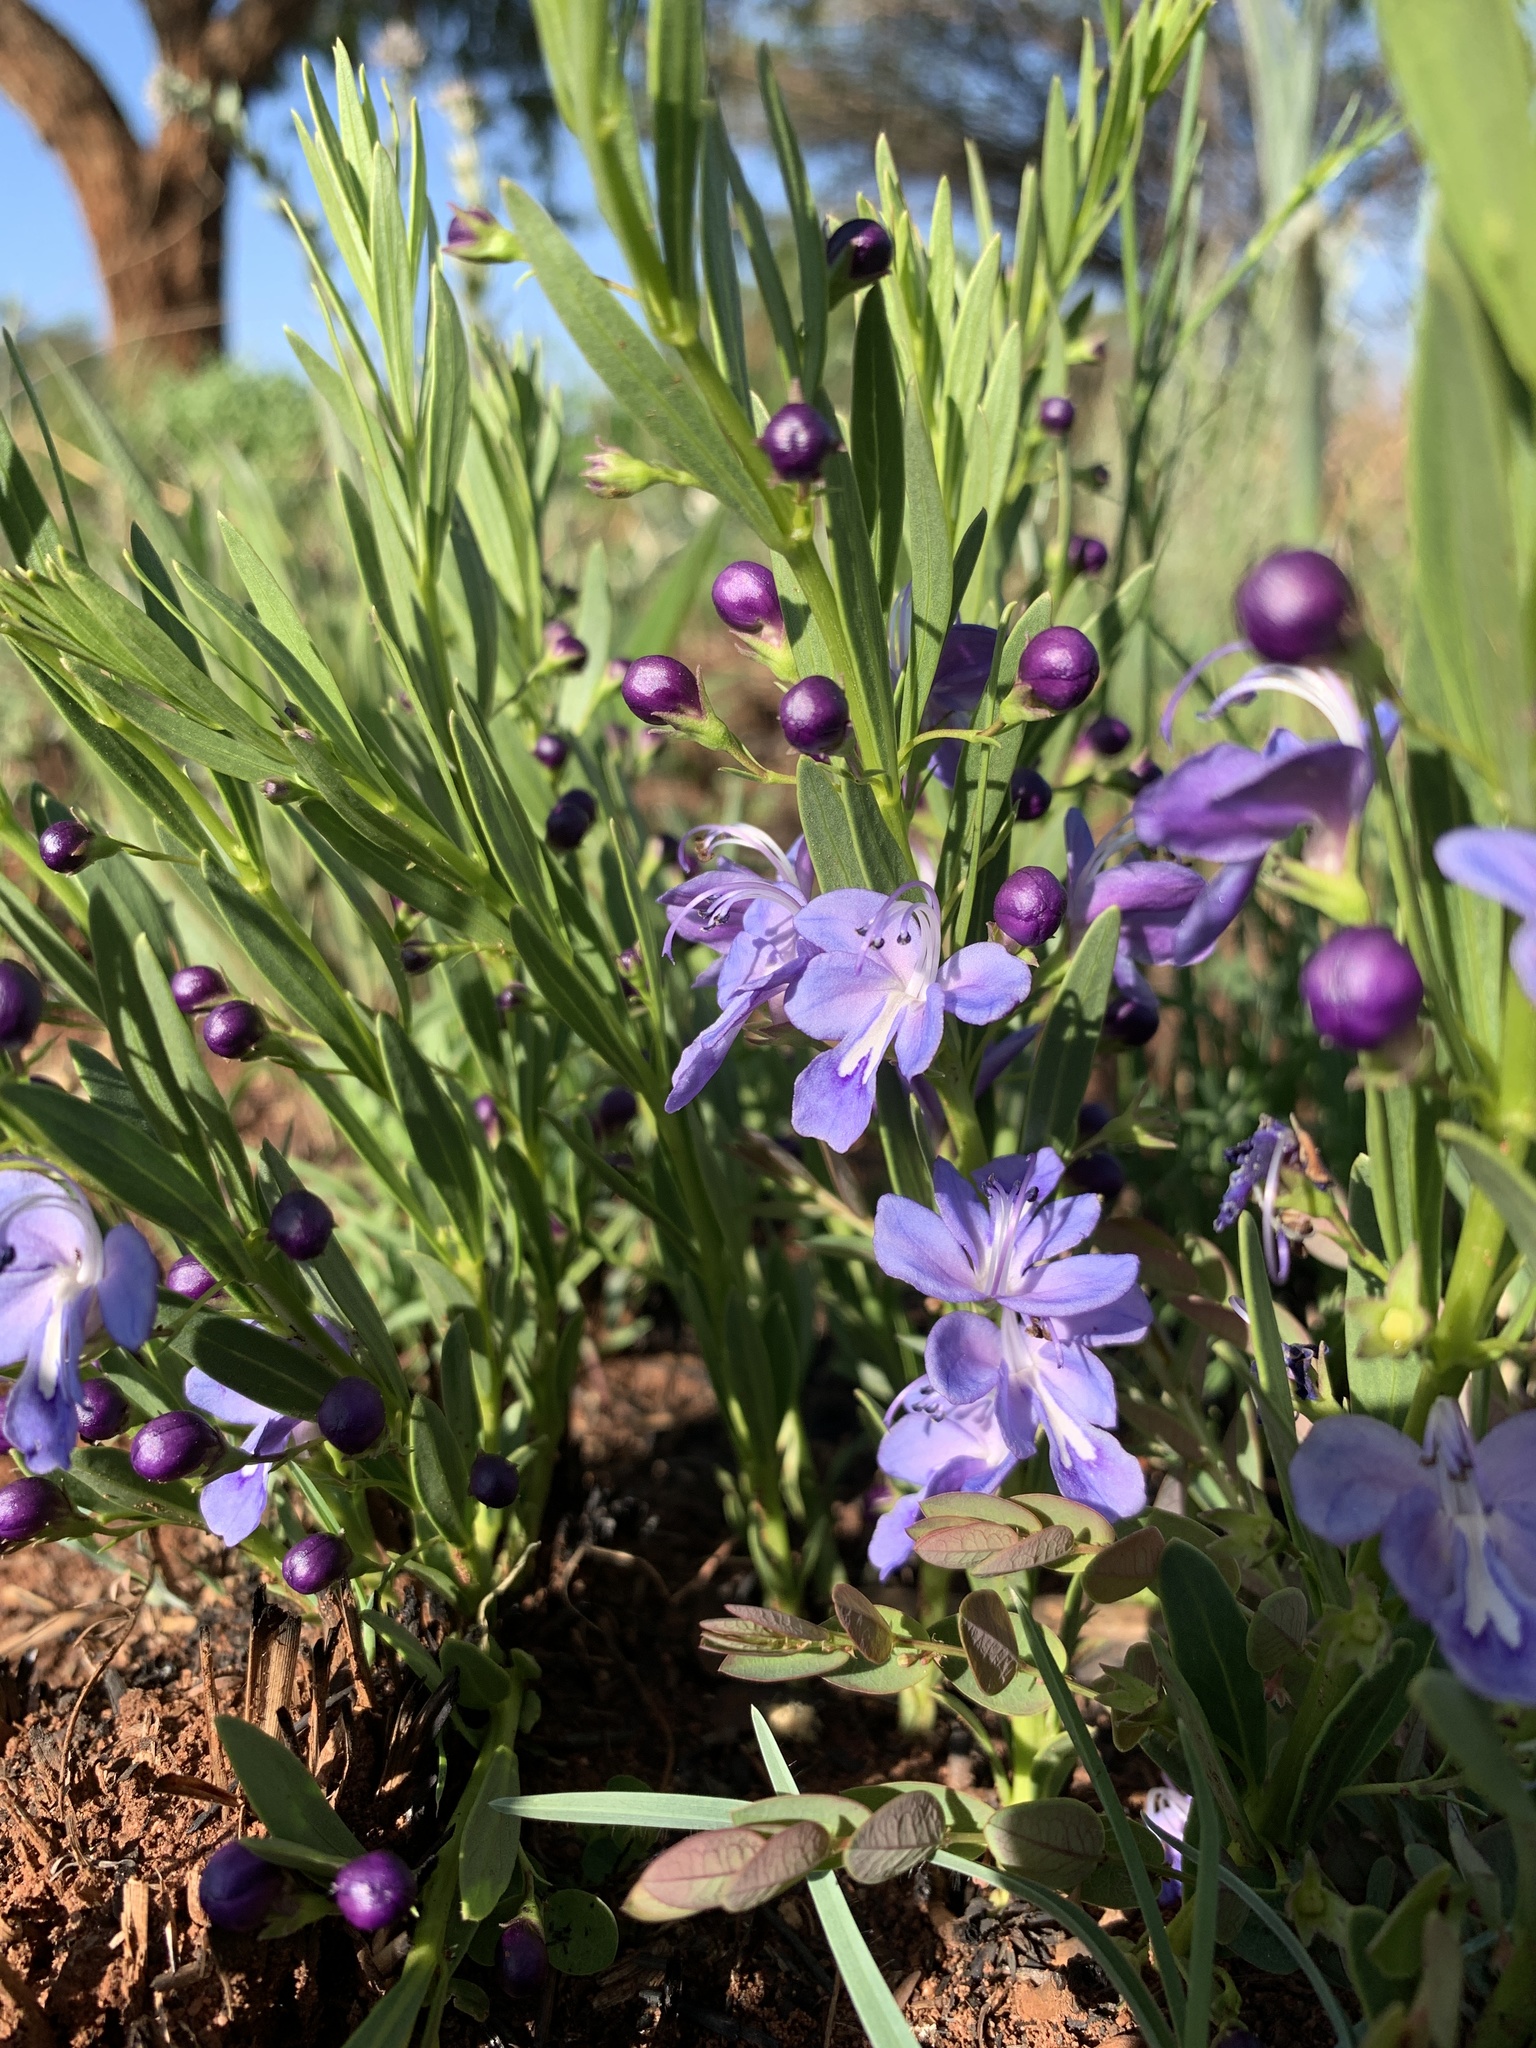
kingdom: Plantae
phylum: Tracheophyta
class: Magnoliopsida
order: Lamiales
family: Lamiaceae
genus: Rotheca
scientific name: Rotheca hirsuta
